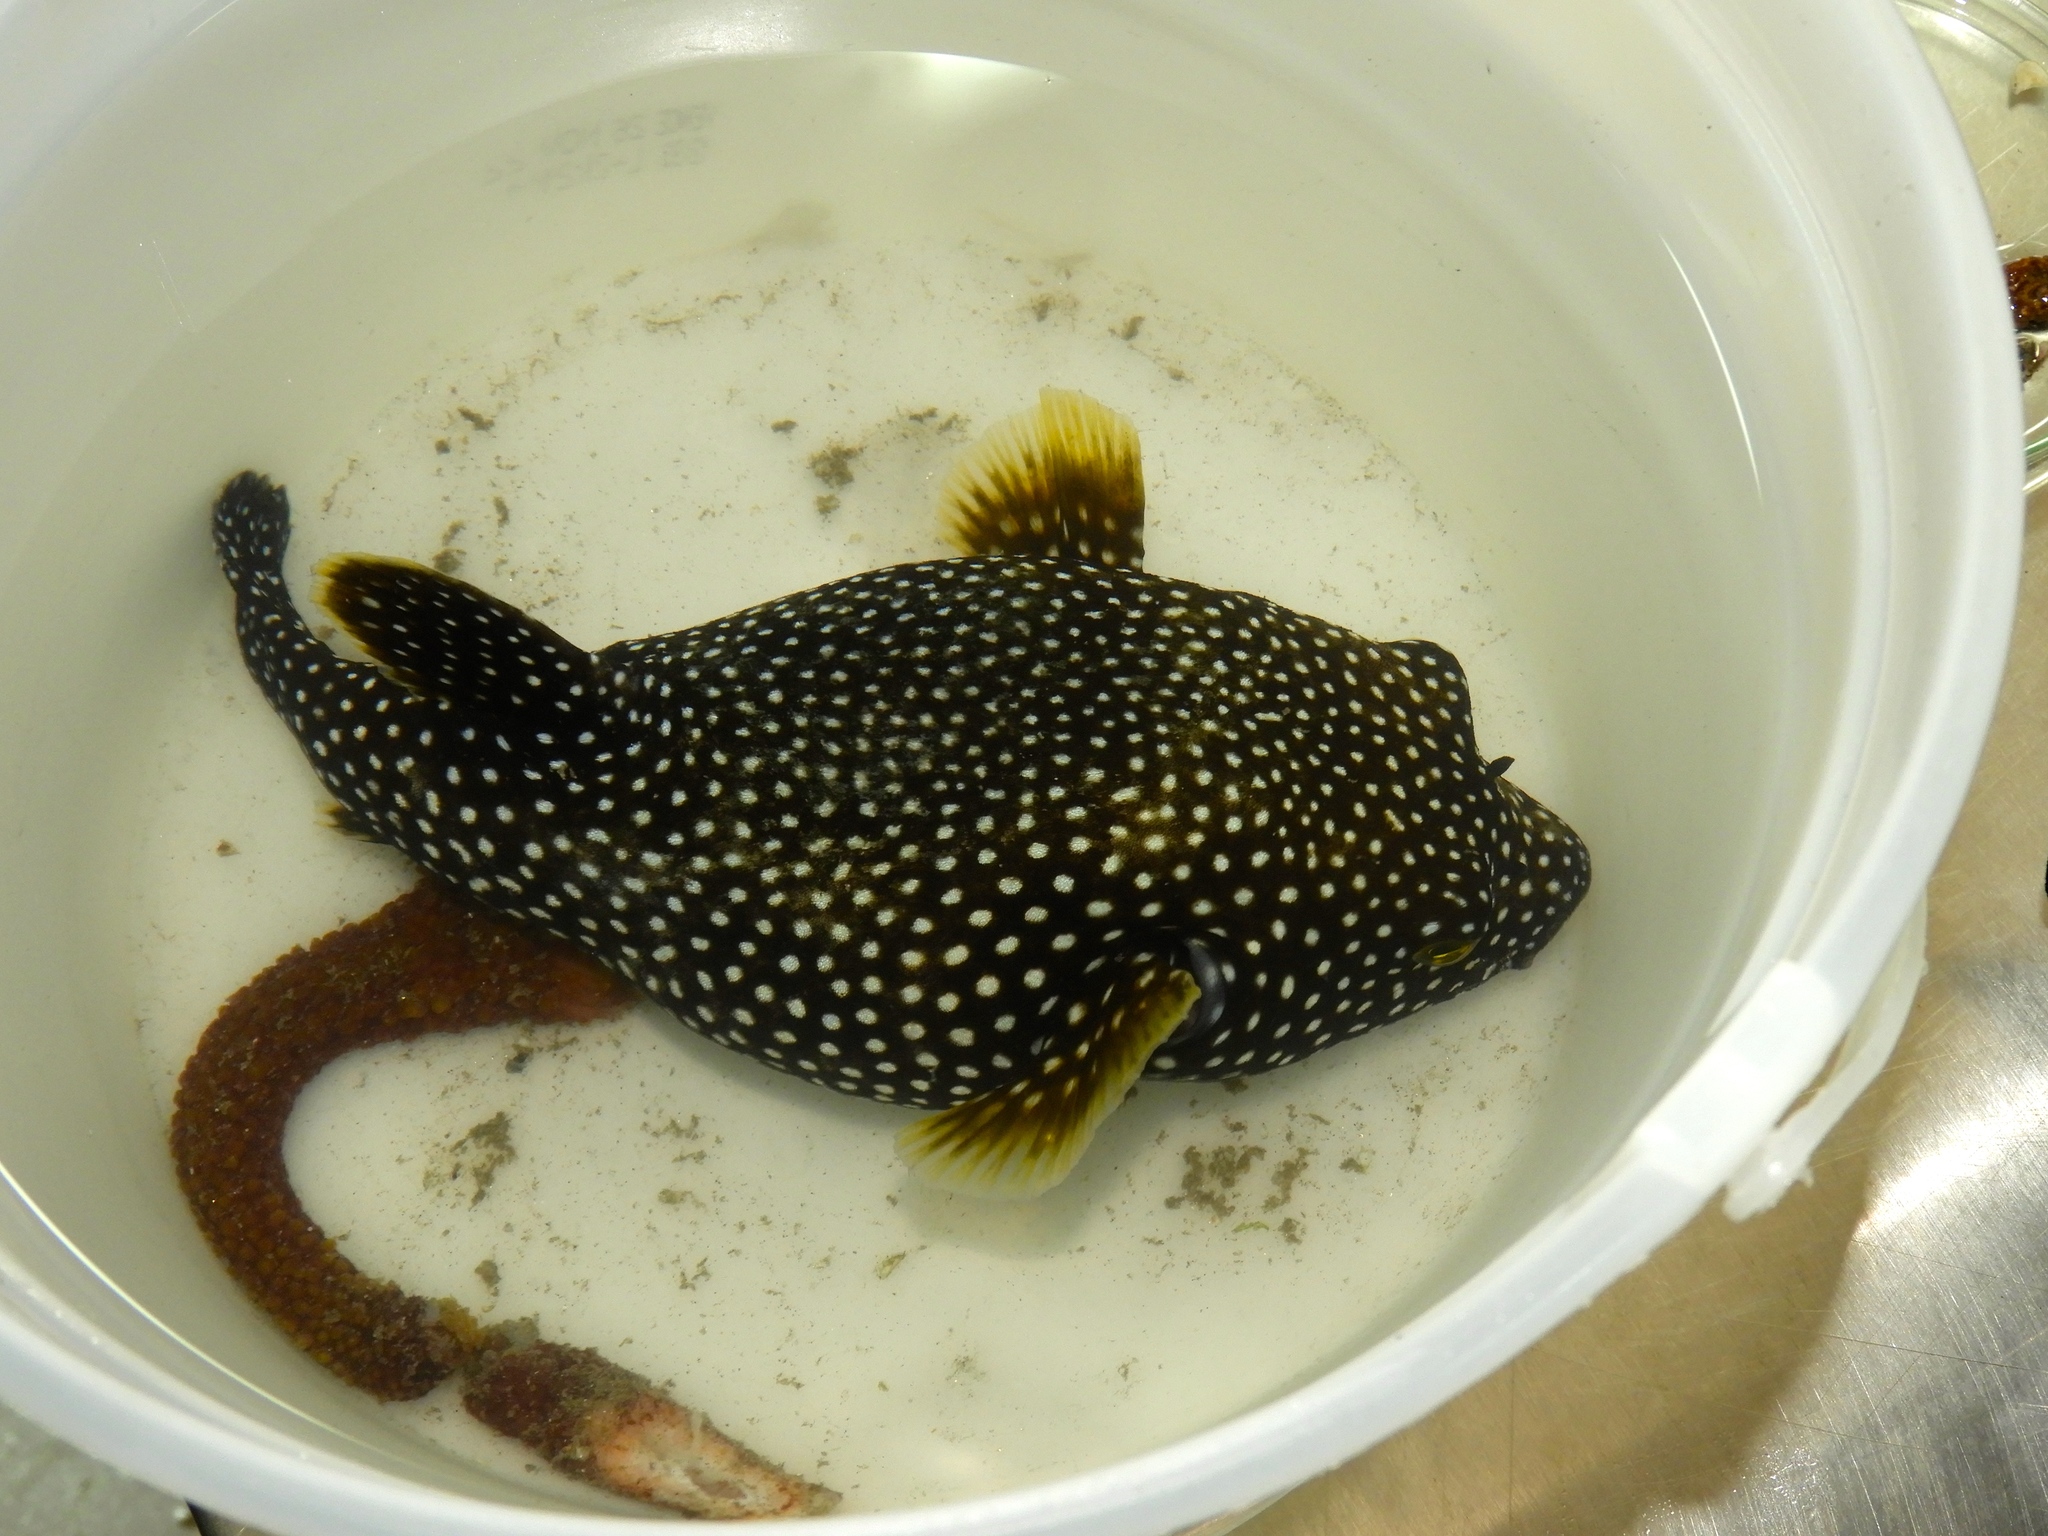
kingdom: Animalia
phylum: Chordata
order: Tetraodontiformes
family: Tetraodontidae
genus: Arothron
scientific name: Arothron meleagris
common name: Guinea-fowl pufferfish
